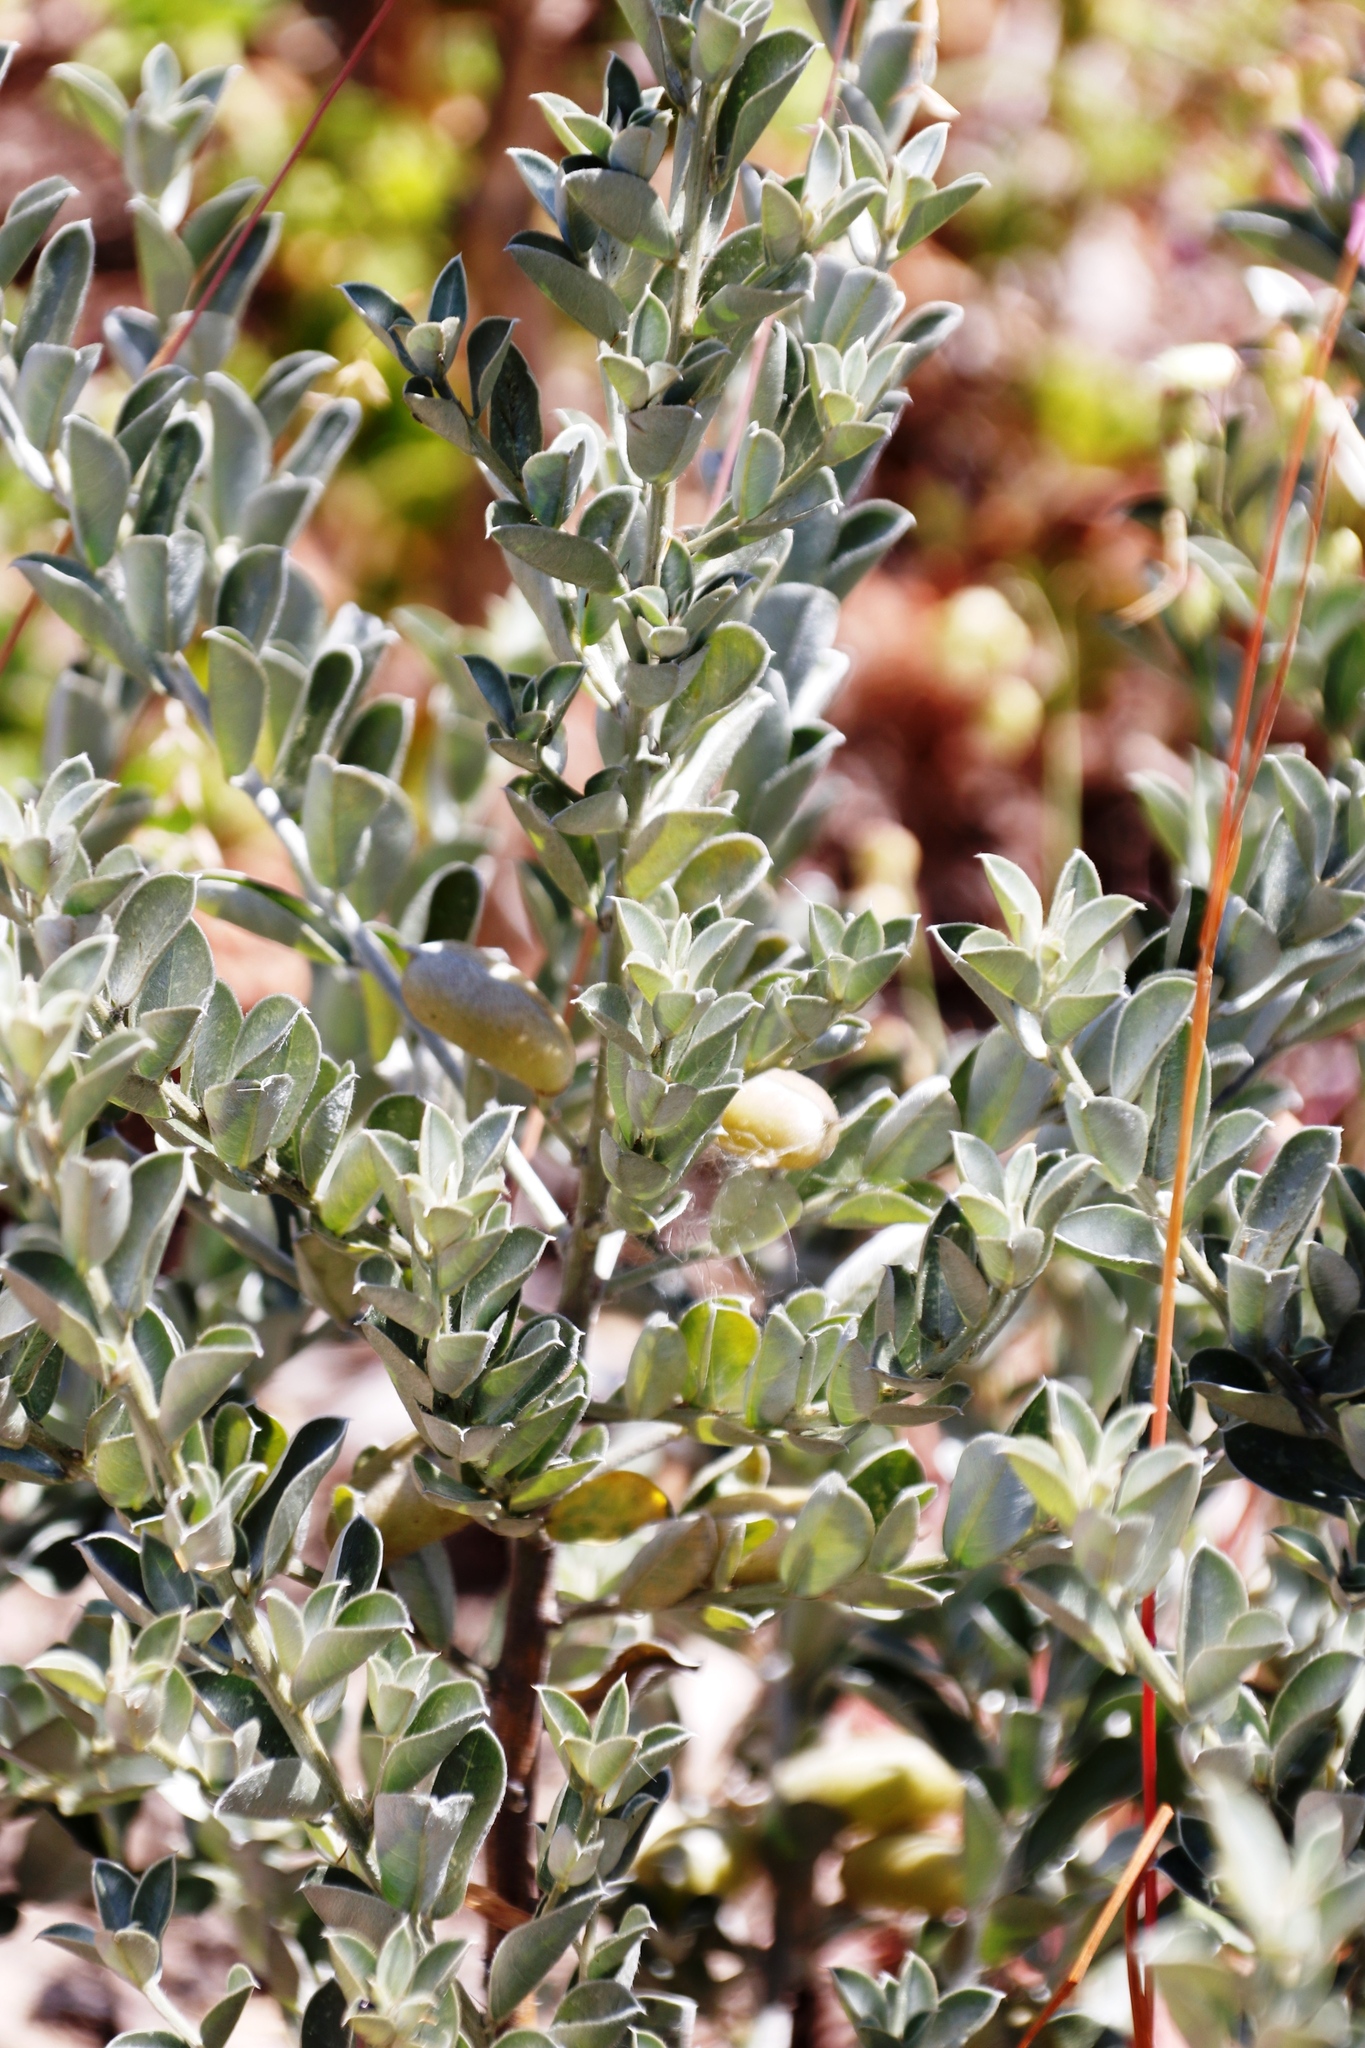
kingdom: Plantae
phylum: Tracheophyta
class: Magnoliopsida
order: Fabales
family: Fabaceae
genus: Podalyria
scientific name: Podalyria sericea
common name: Silver podalyria
